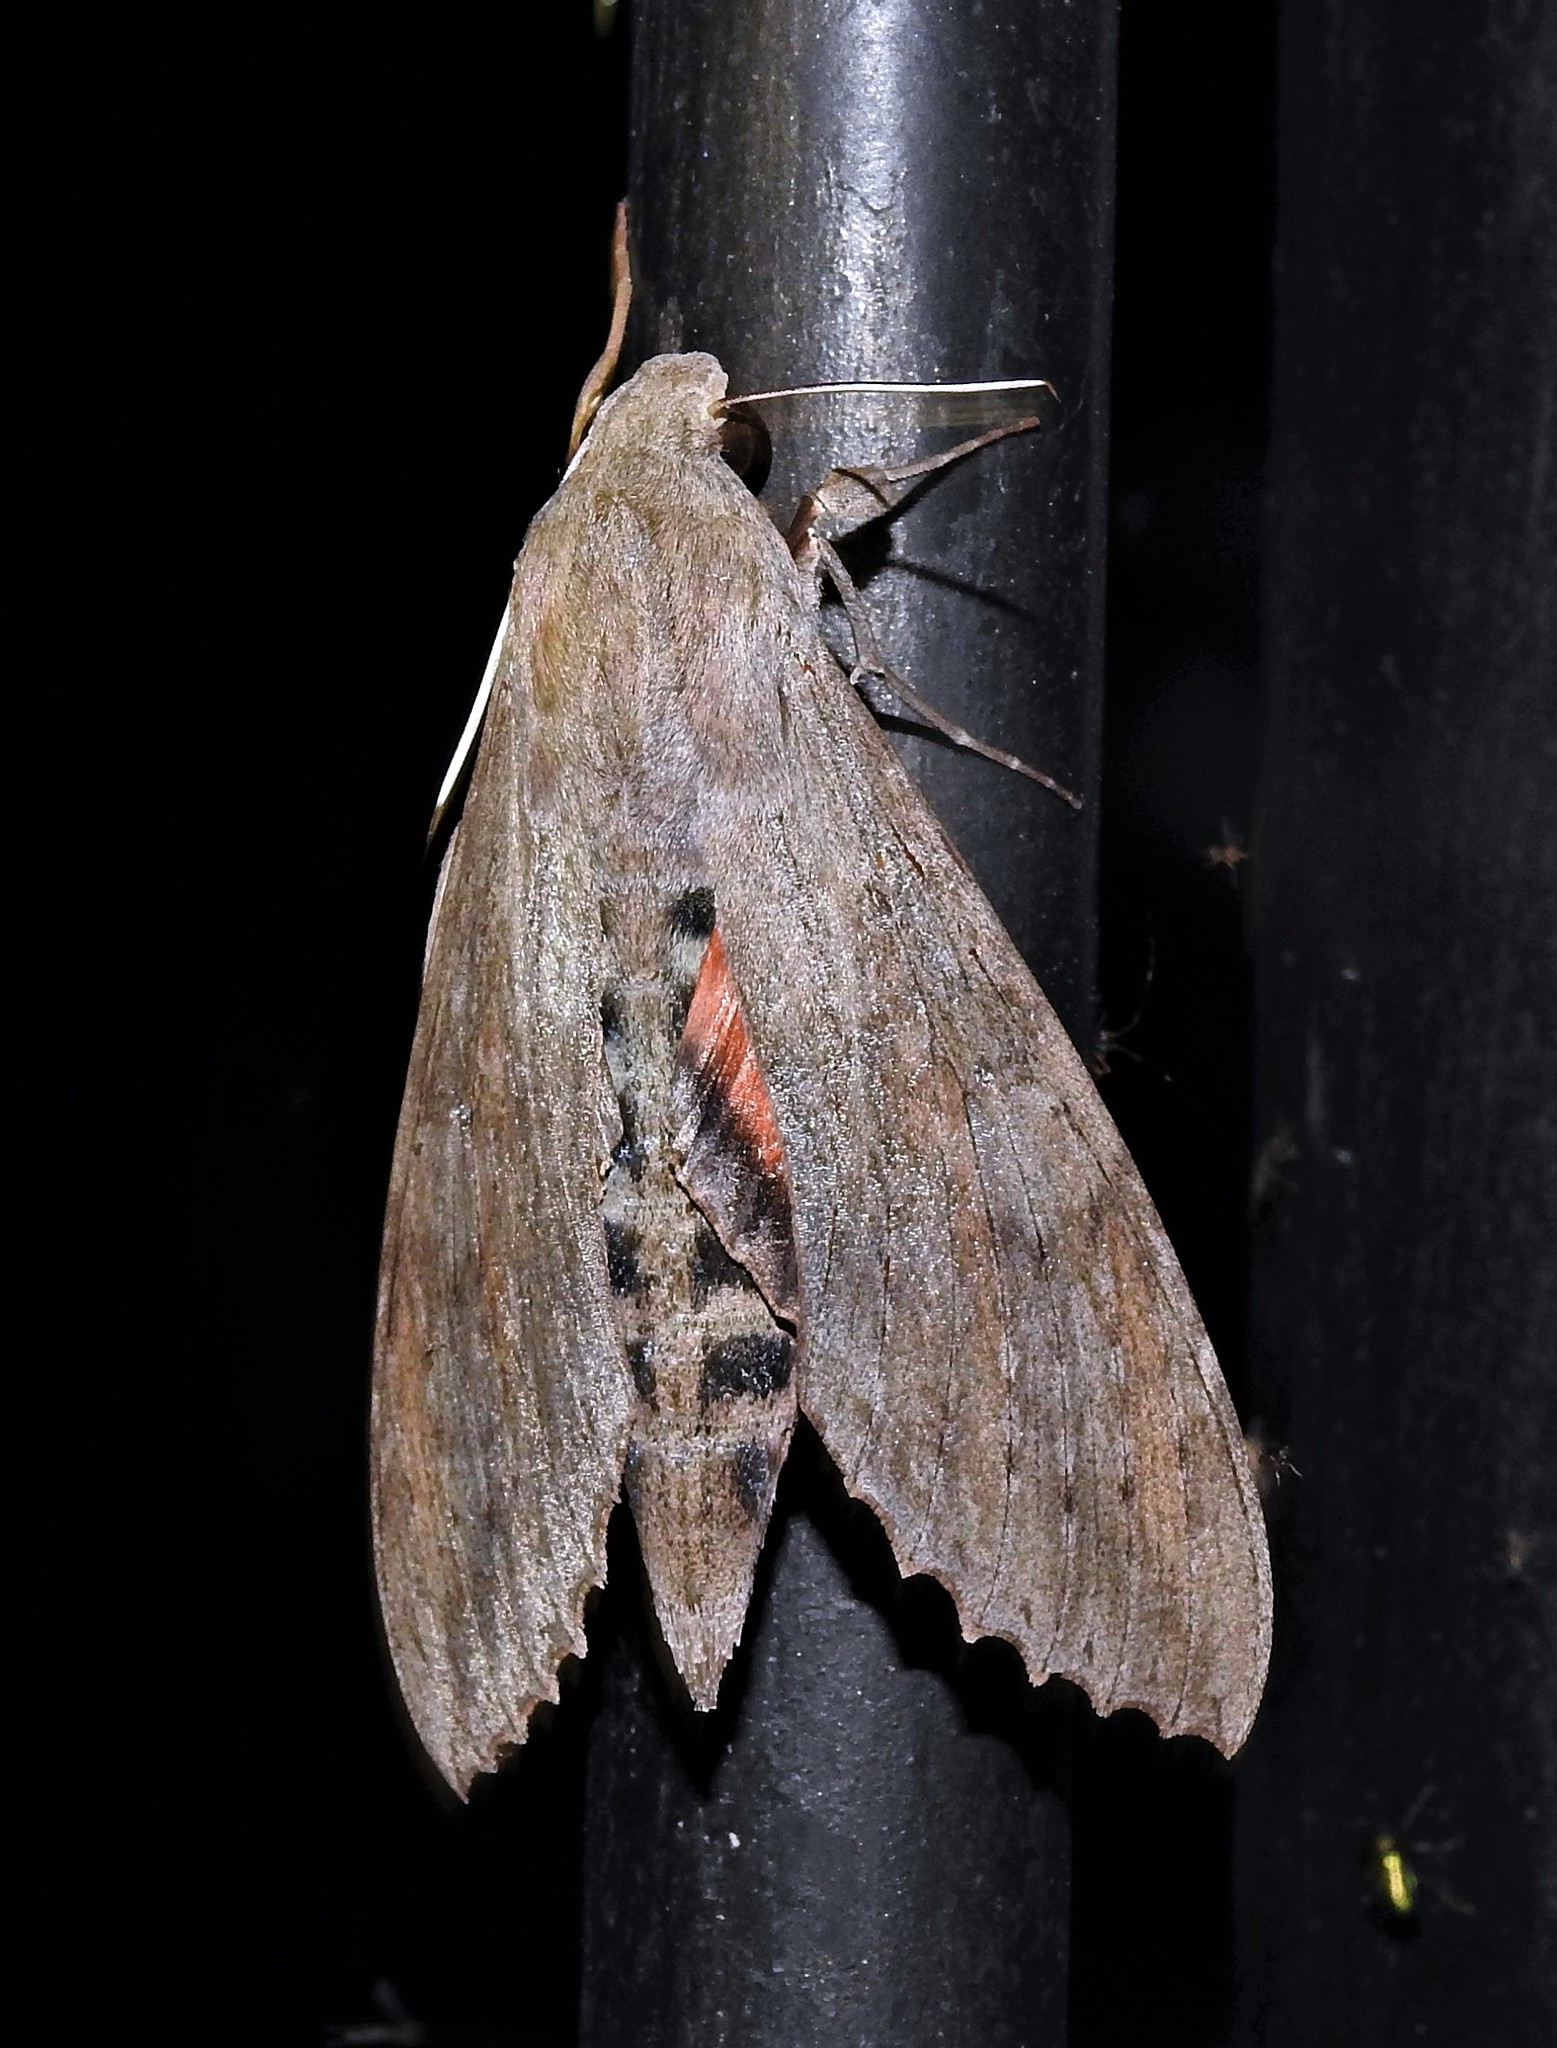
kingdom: Animalia
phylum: Arthropoda
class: Insecta
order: Lepidoptera
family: Sphingidae
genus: Erinnyis
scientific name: Erinnyis ello
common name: Ello sphinx
